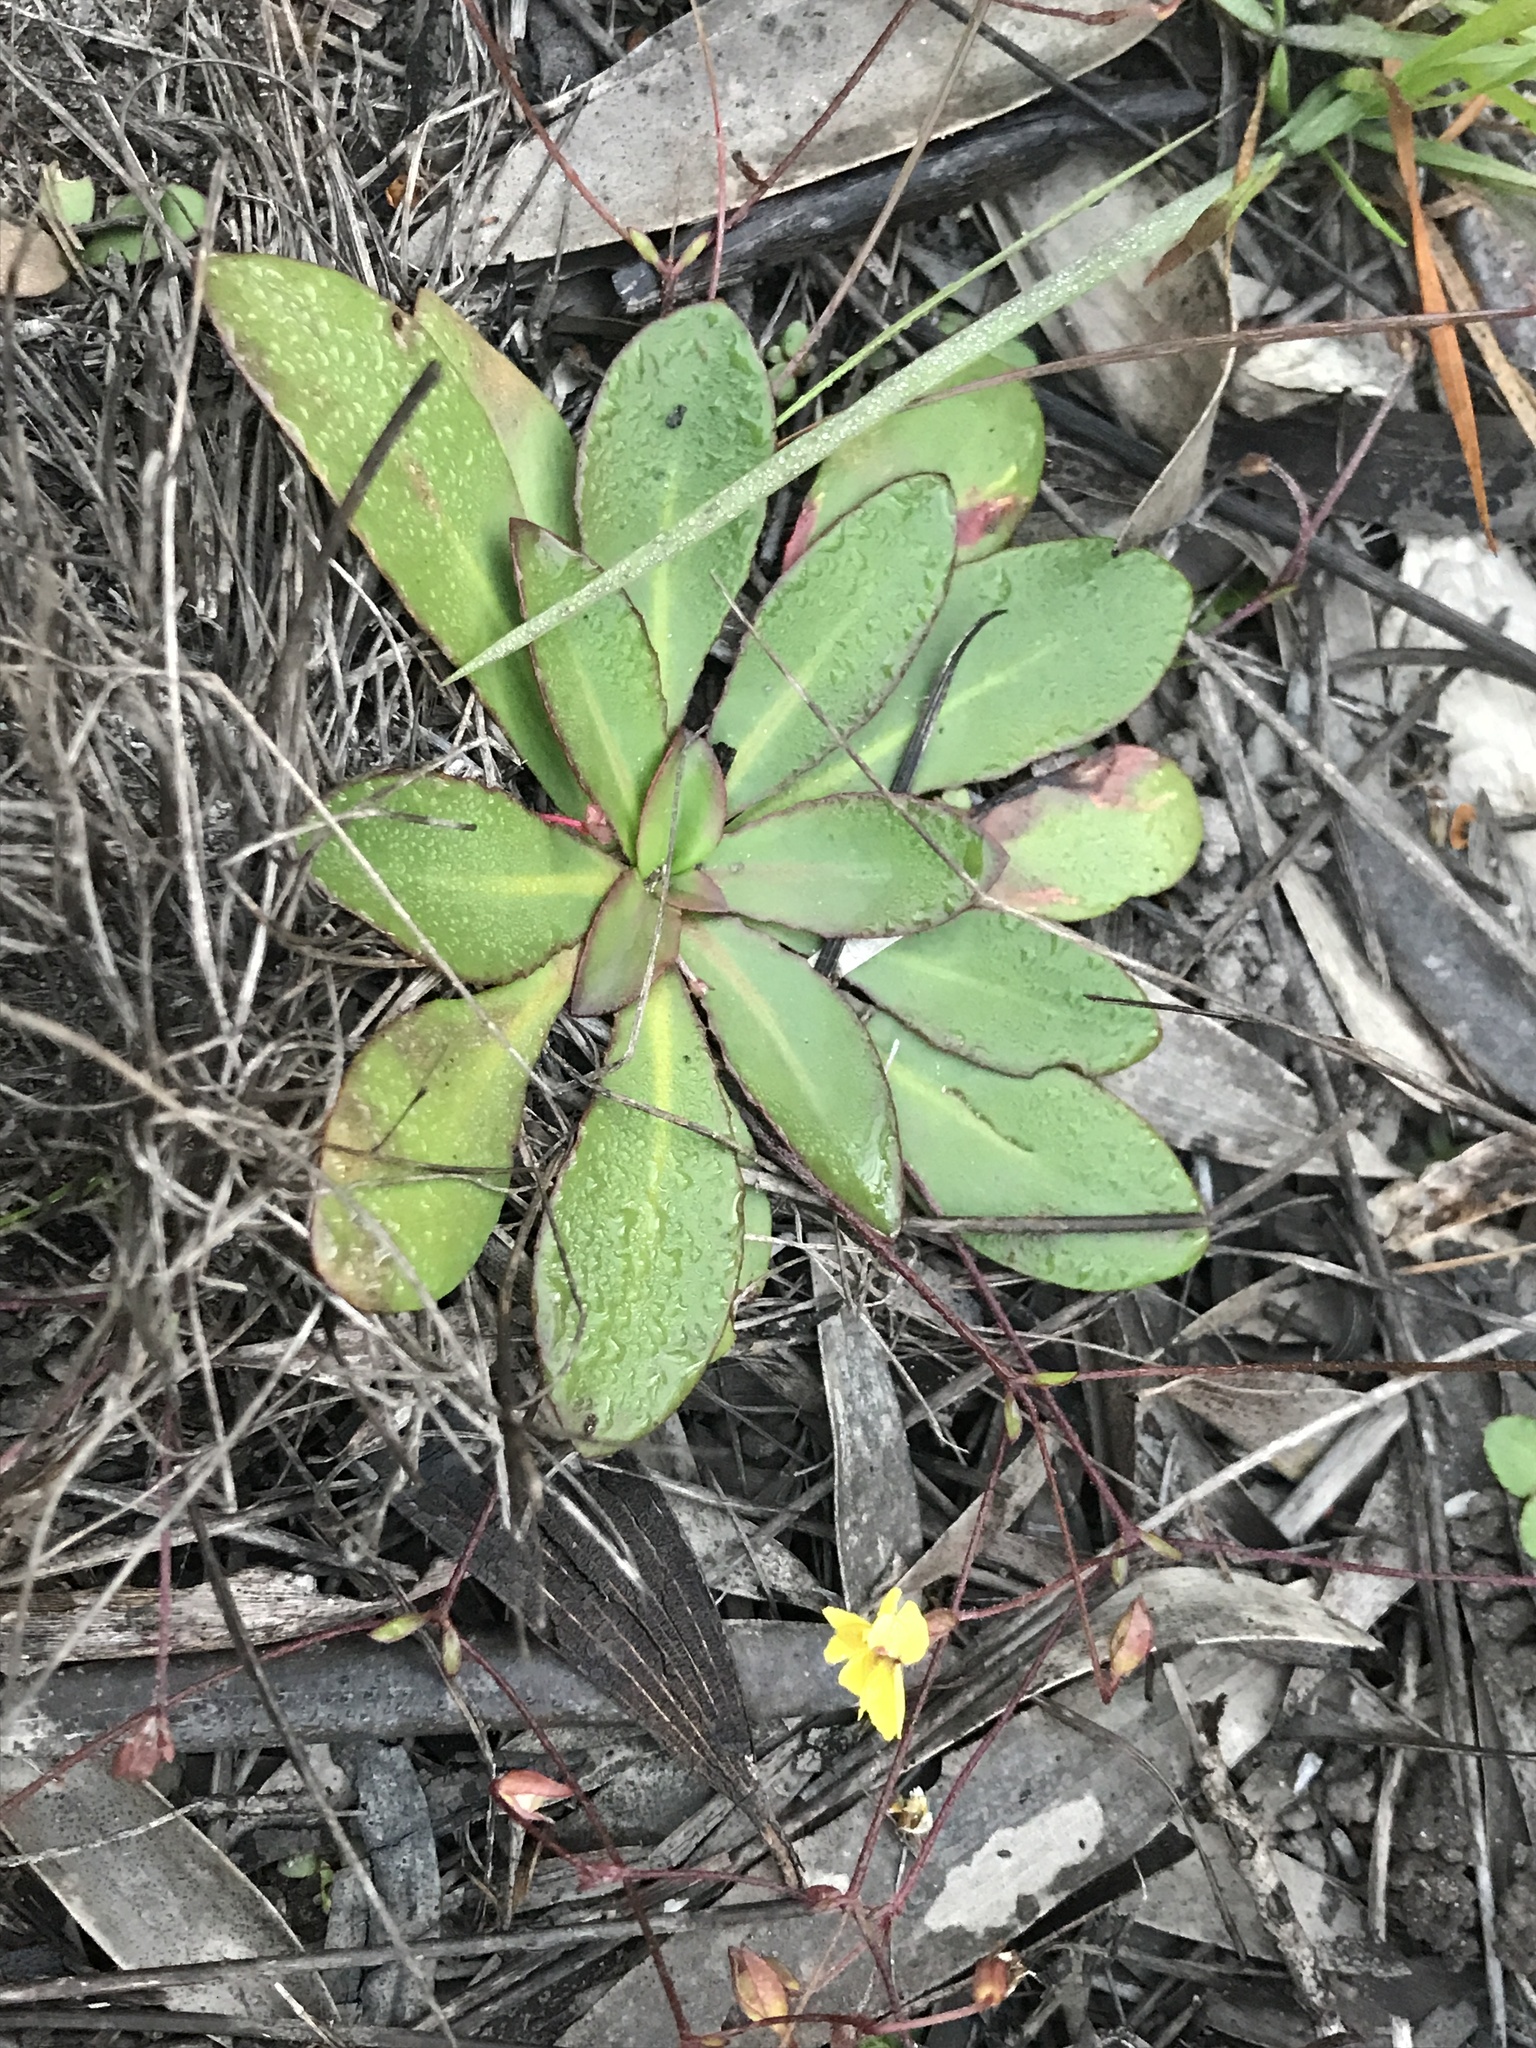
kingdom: Plantae
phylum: Tracheophyta
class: Magnoliopsida
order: Asterales
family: Goodeniaceae
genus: Goodenia
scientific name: Goodenia mystrophylla
